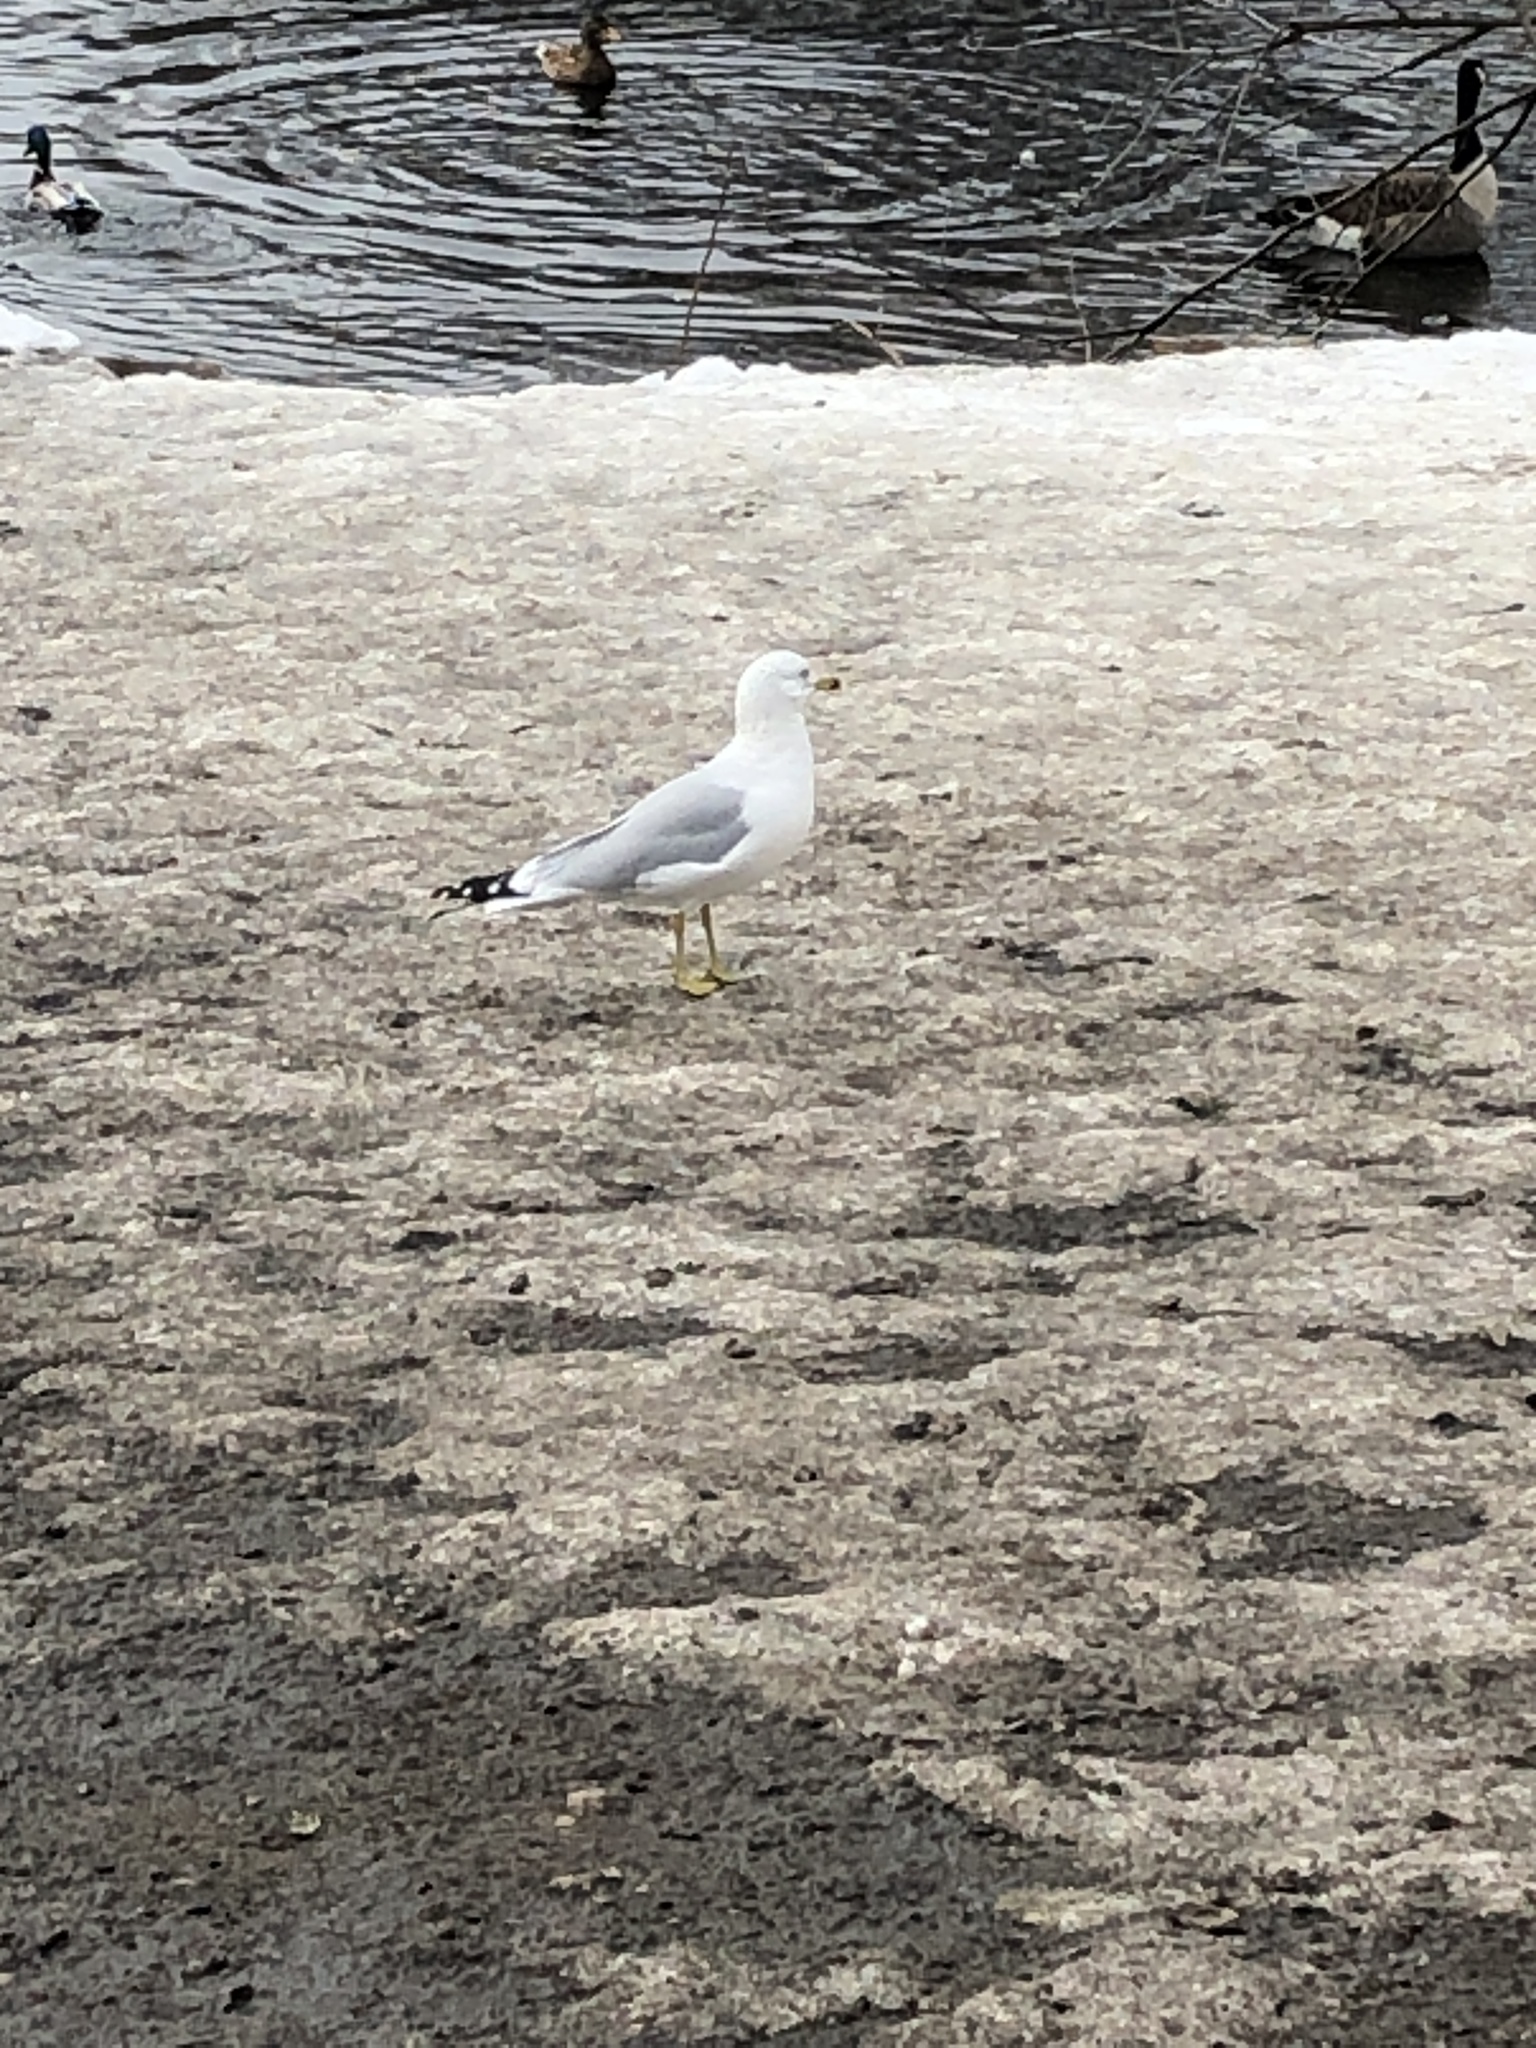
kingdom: Animalia
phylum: Chordata
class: Aves
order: Charadriiformes
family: Laridae
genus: Larus
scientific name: Larus delawarensis
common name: Ring-billed gull
